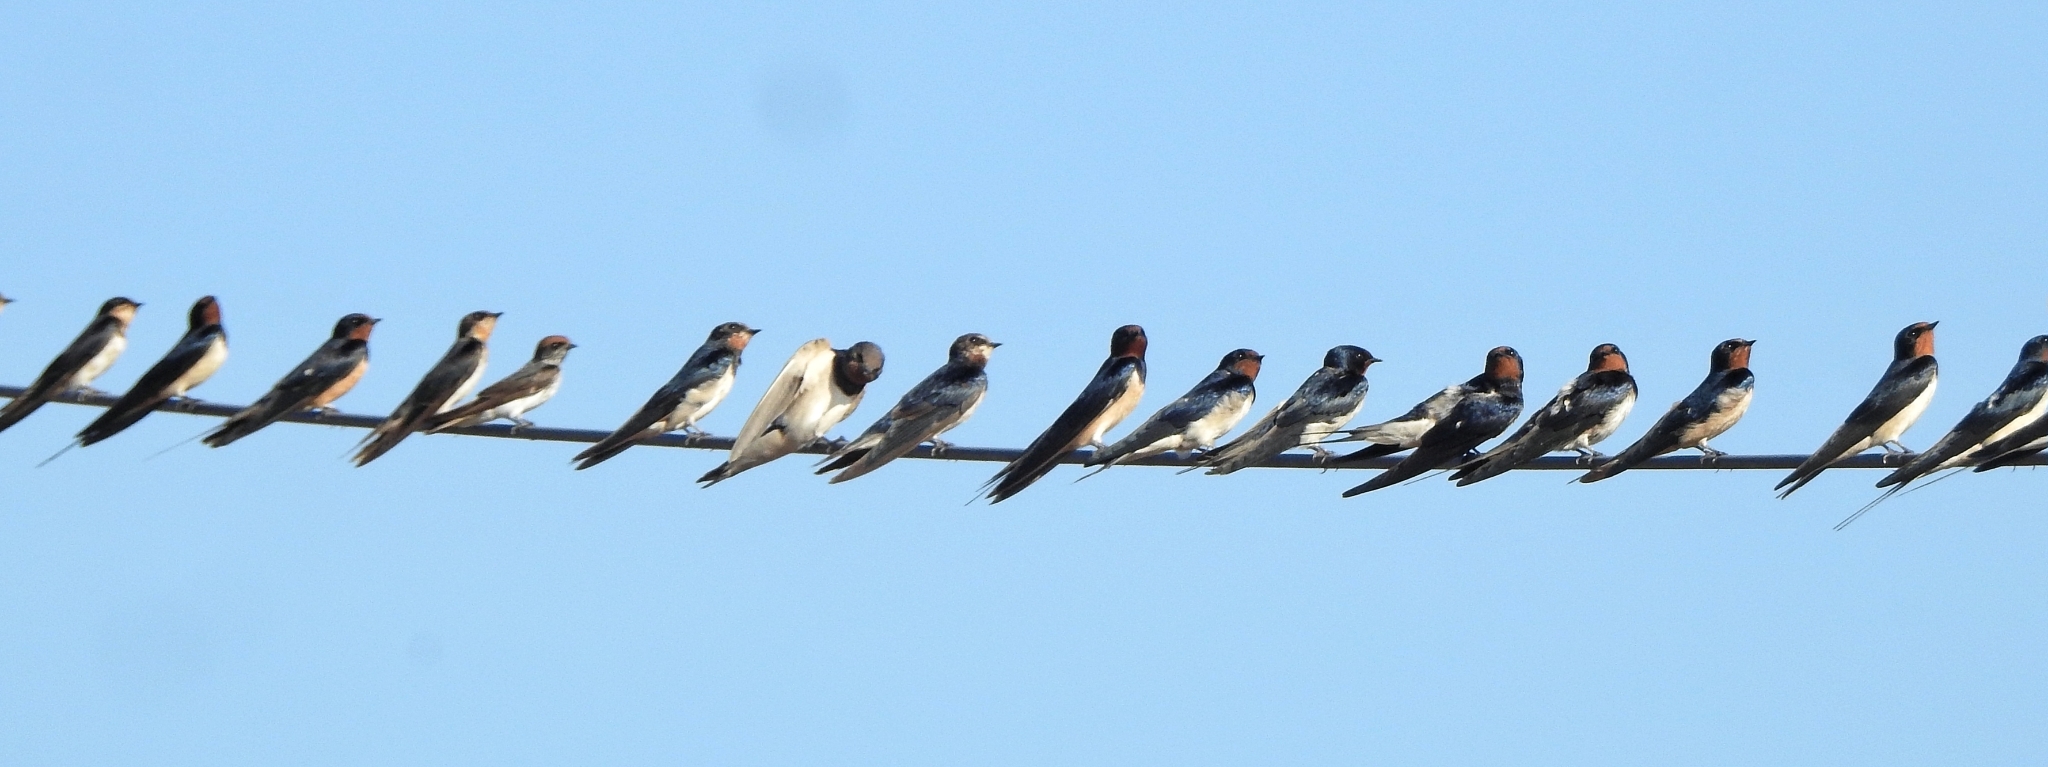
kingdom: Animalia
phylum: Chordata
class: Aves
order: Passeriformes
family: Hirundinidae
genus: Hirundo
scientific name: Hirundo rustica
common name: Barn swallow
